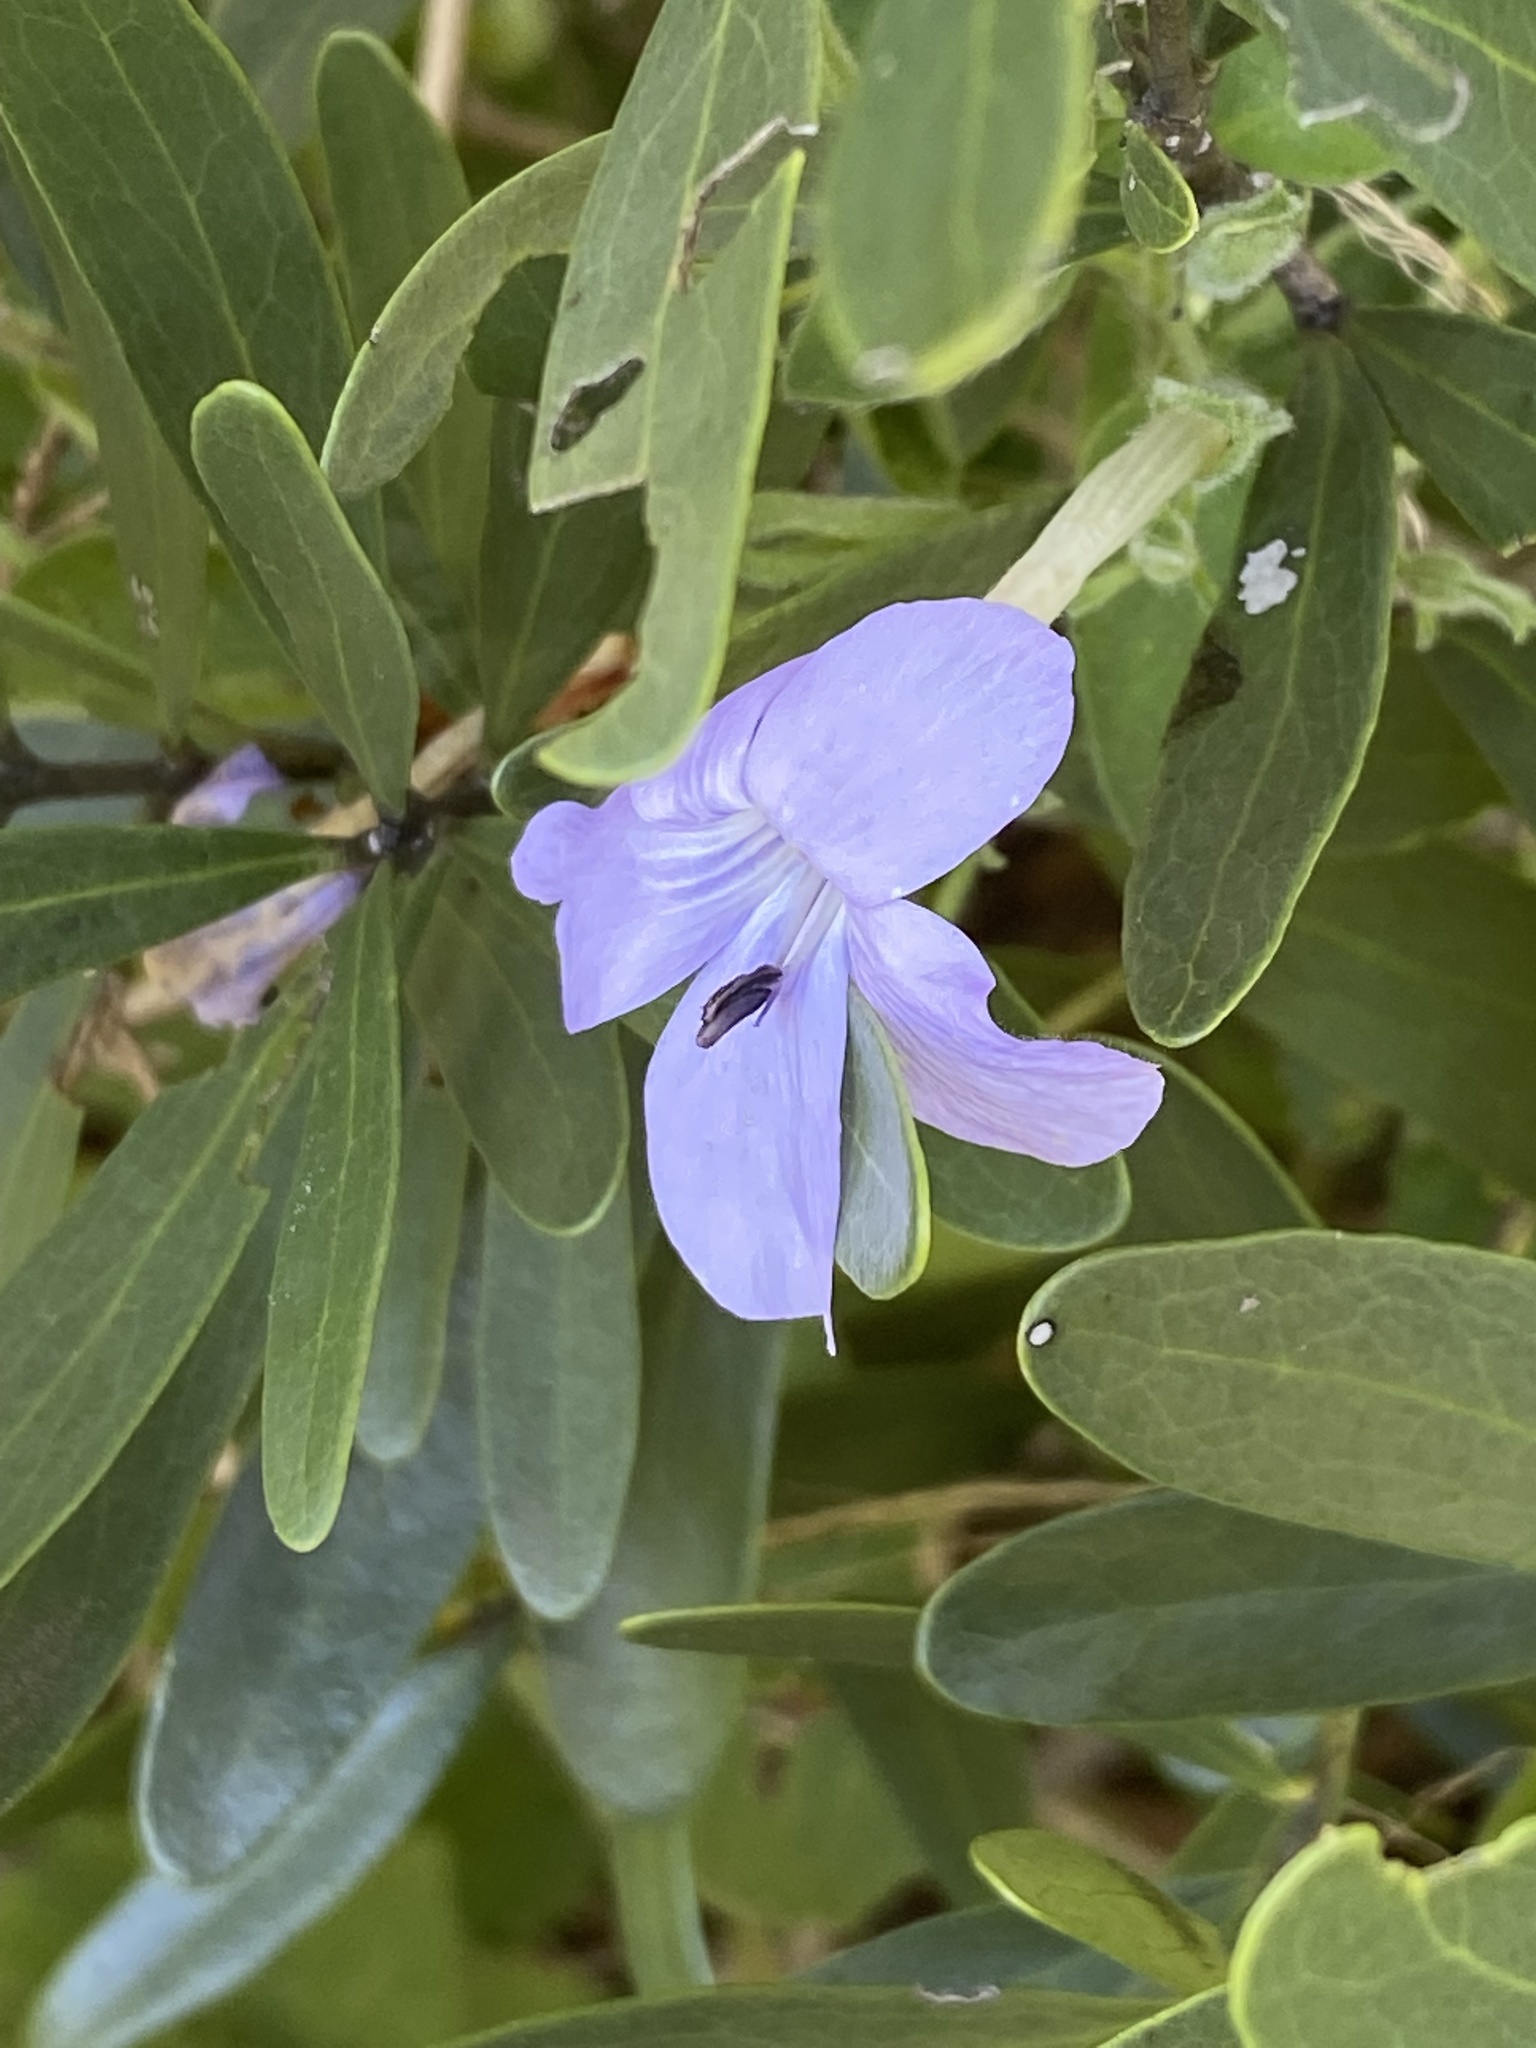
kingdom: Plantae
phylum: Tracheophyta
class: Magnoliopsida
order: Lamiales
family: Acanthaceae
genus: Barleria
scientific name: Barleria obtusa
